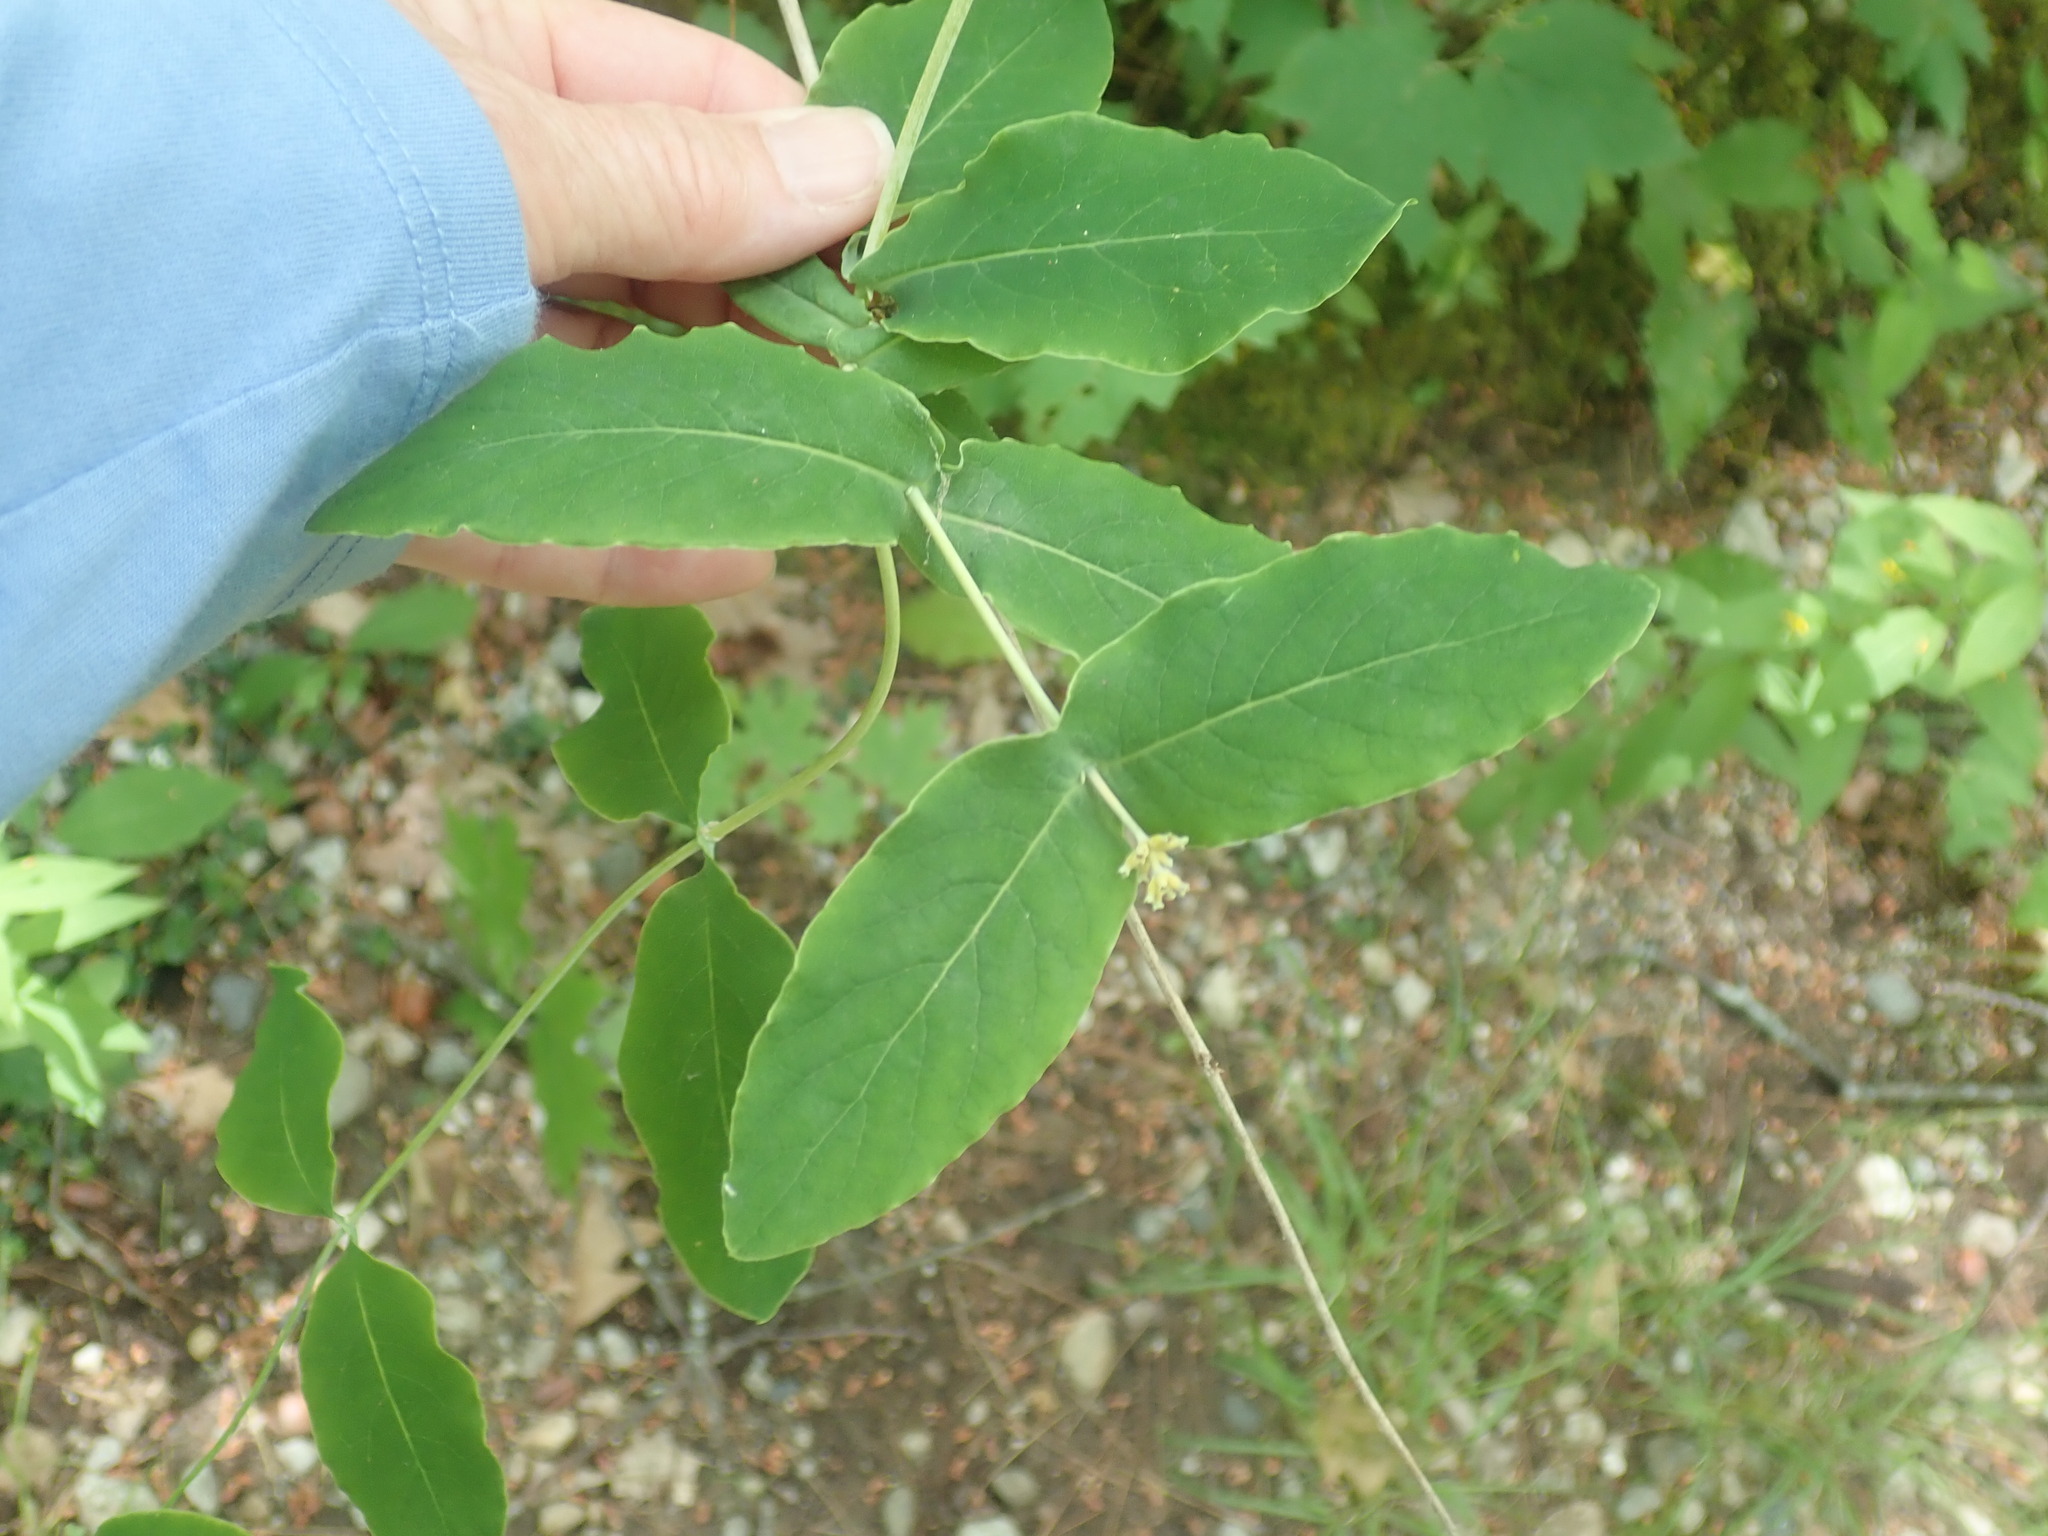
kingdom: Plantae
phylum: Tracheophyta
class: Magnoliopsida
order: Dipsacales
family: Caprifoliaceae
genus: Lonicera
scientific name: Lonicera dioica
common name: Limber honeysuckle
